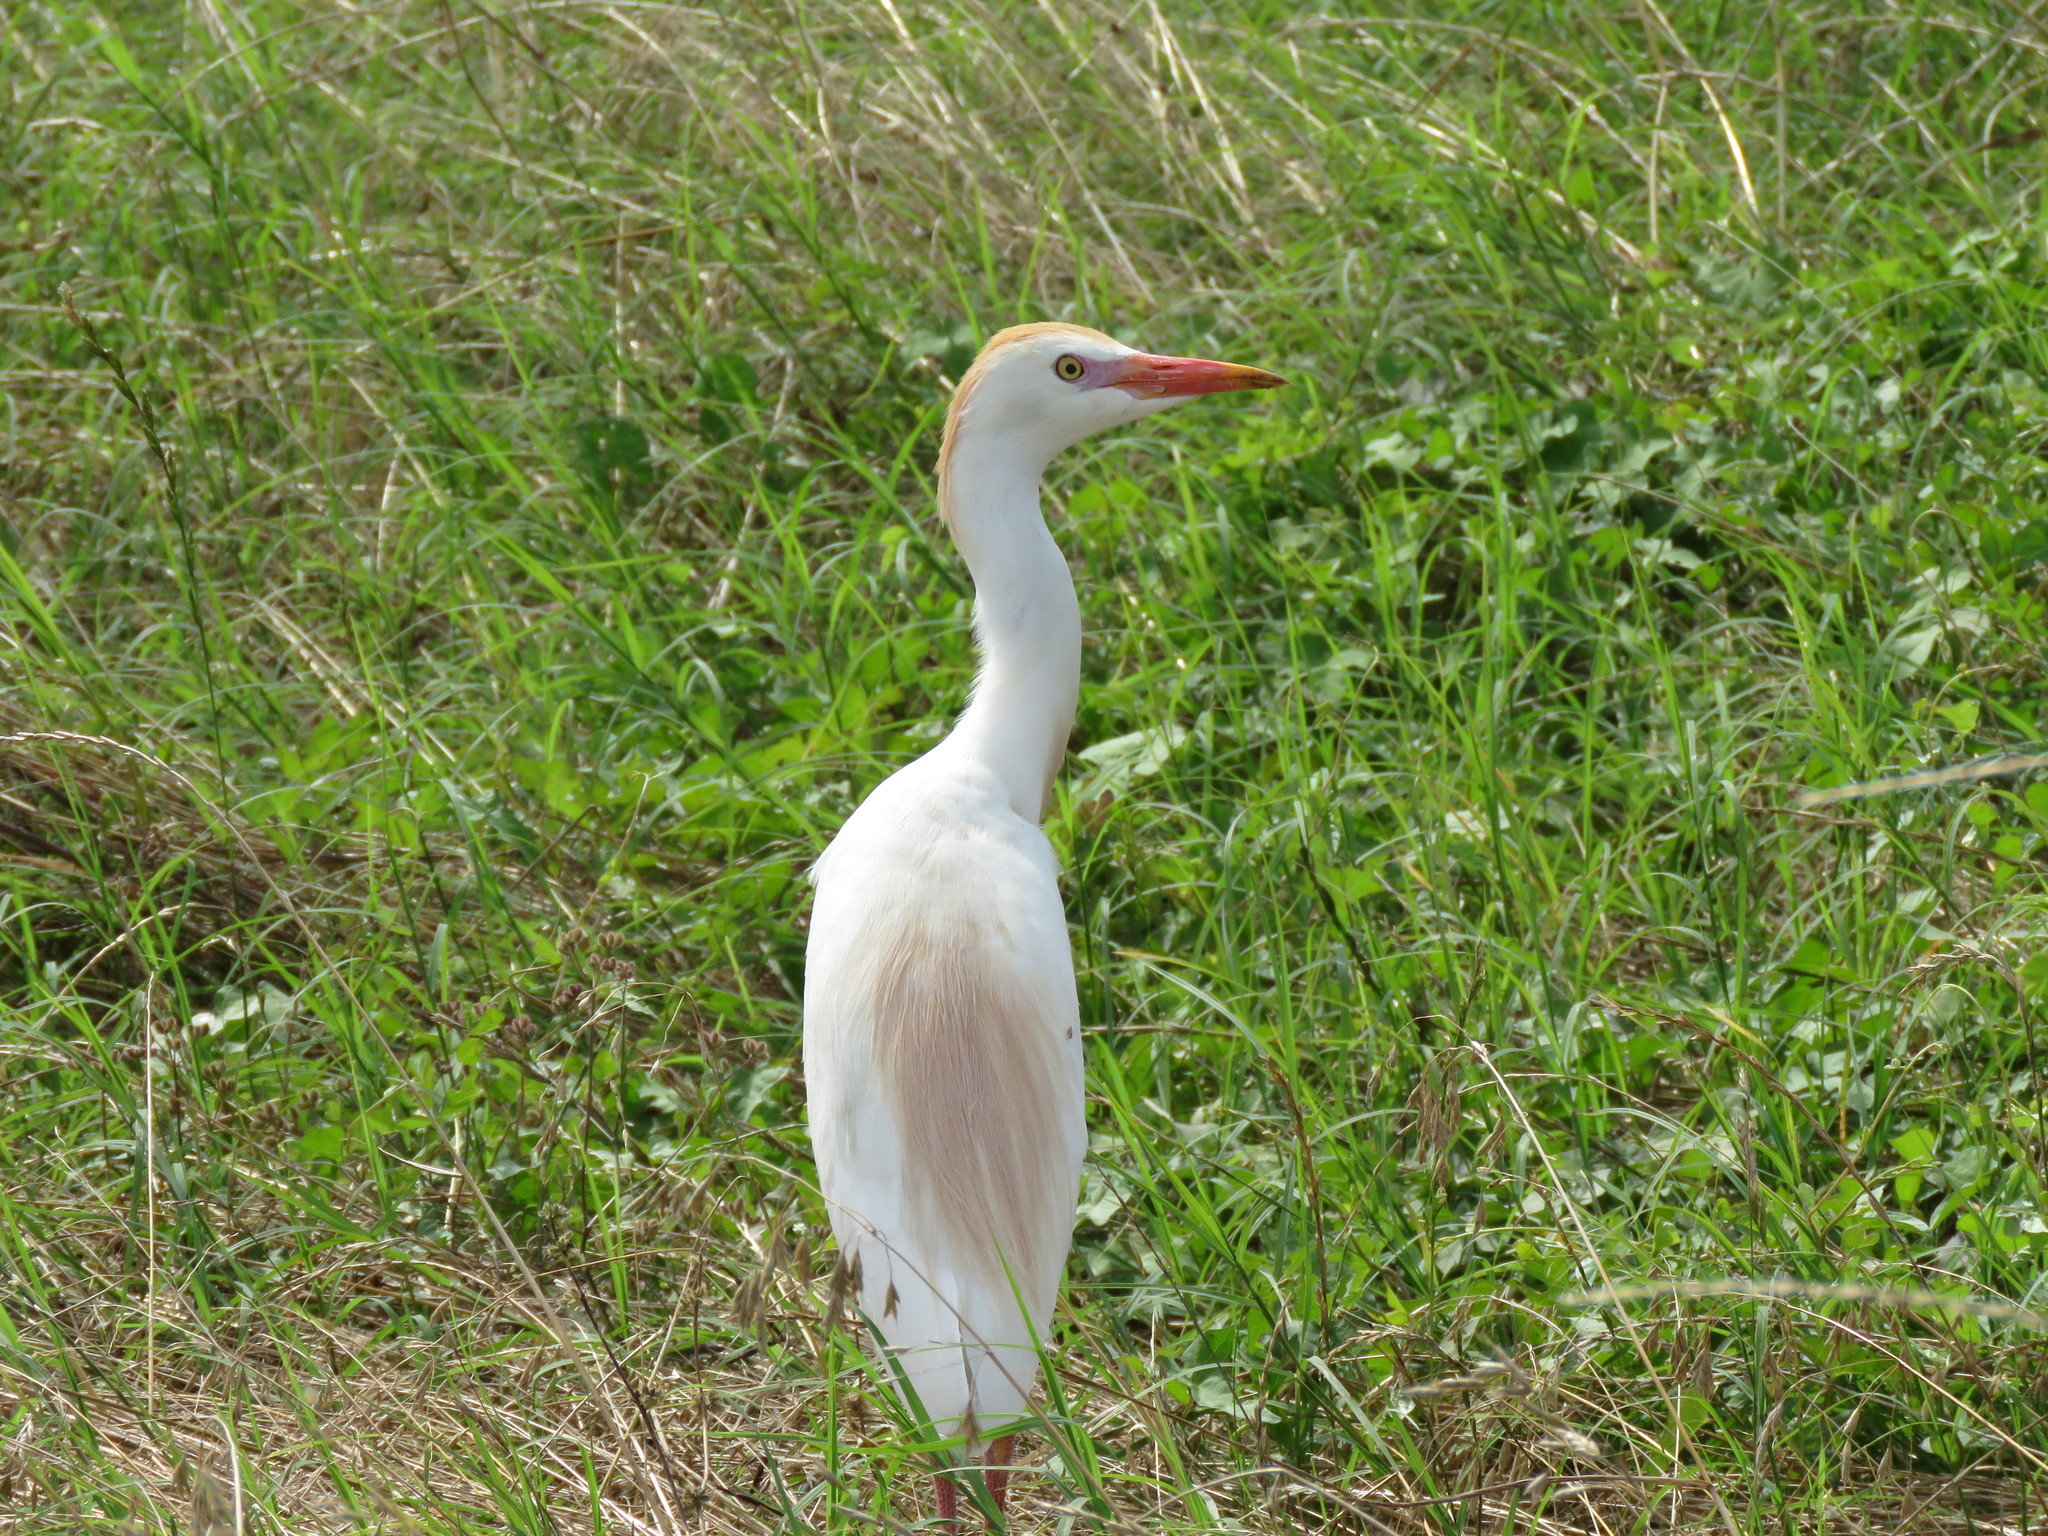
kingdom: Animalia
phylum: Chordata
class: Aves
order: Pelecaniformes
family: Ardeidae
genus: Bubulcus
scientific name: Bubulcus ibis
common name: Cattle egret
